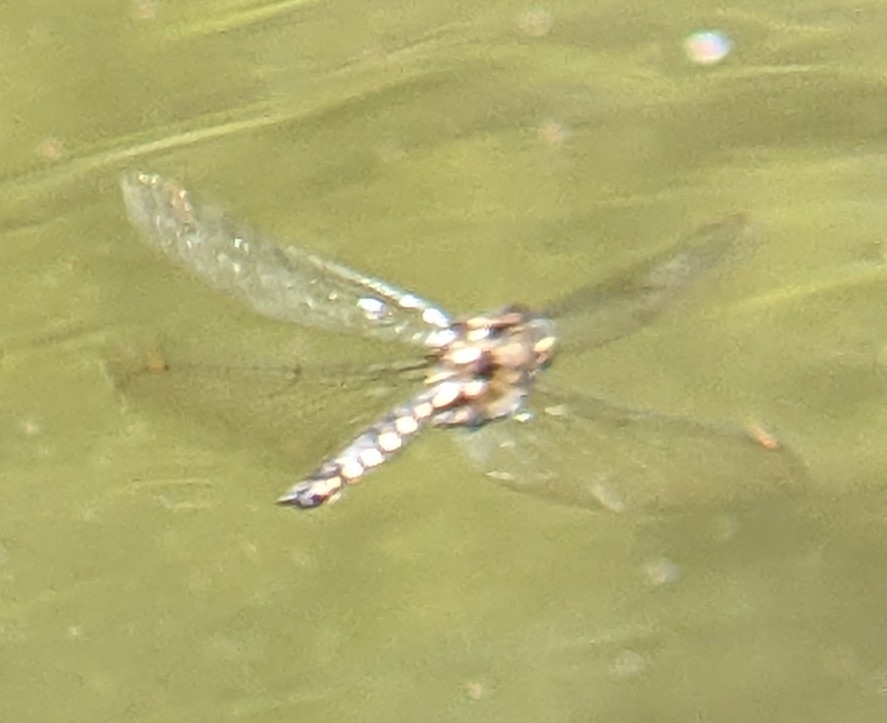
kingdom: Animalia
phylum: Arthropoda
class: Insecta
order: Odonata
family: Corduliidae
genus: Procordulia
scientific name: Procordulia grayi
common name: Yellow spotted dragonfly
